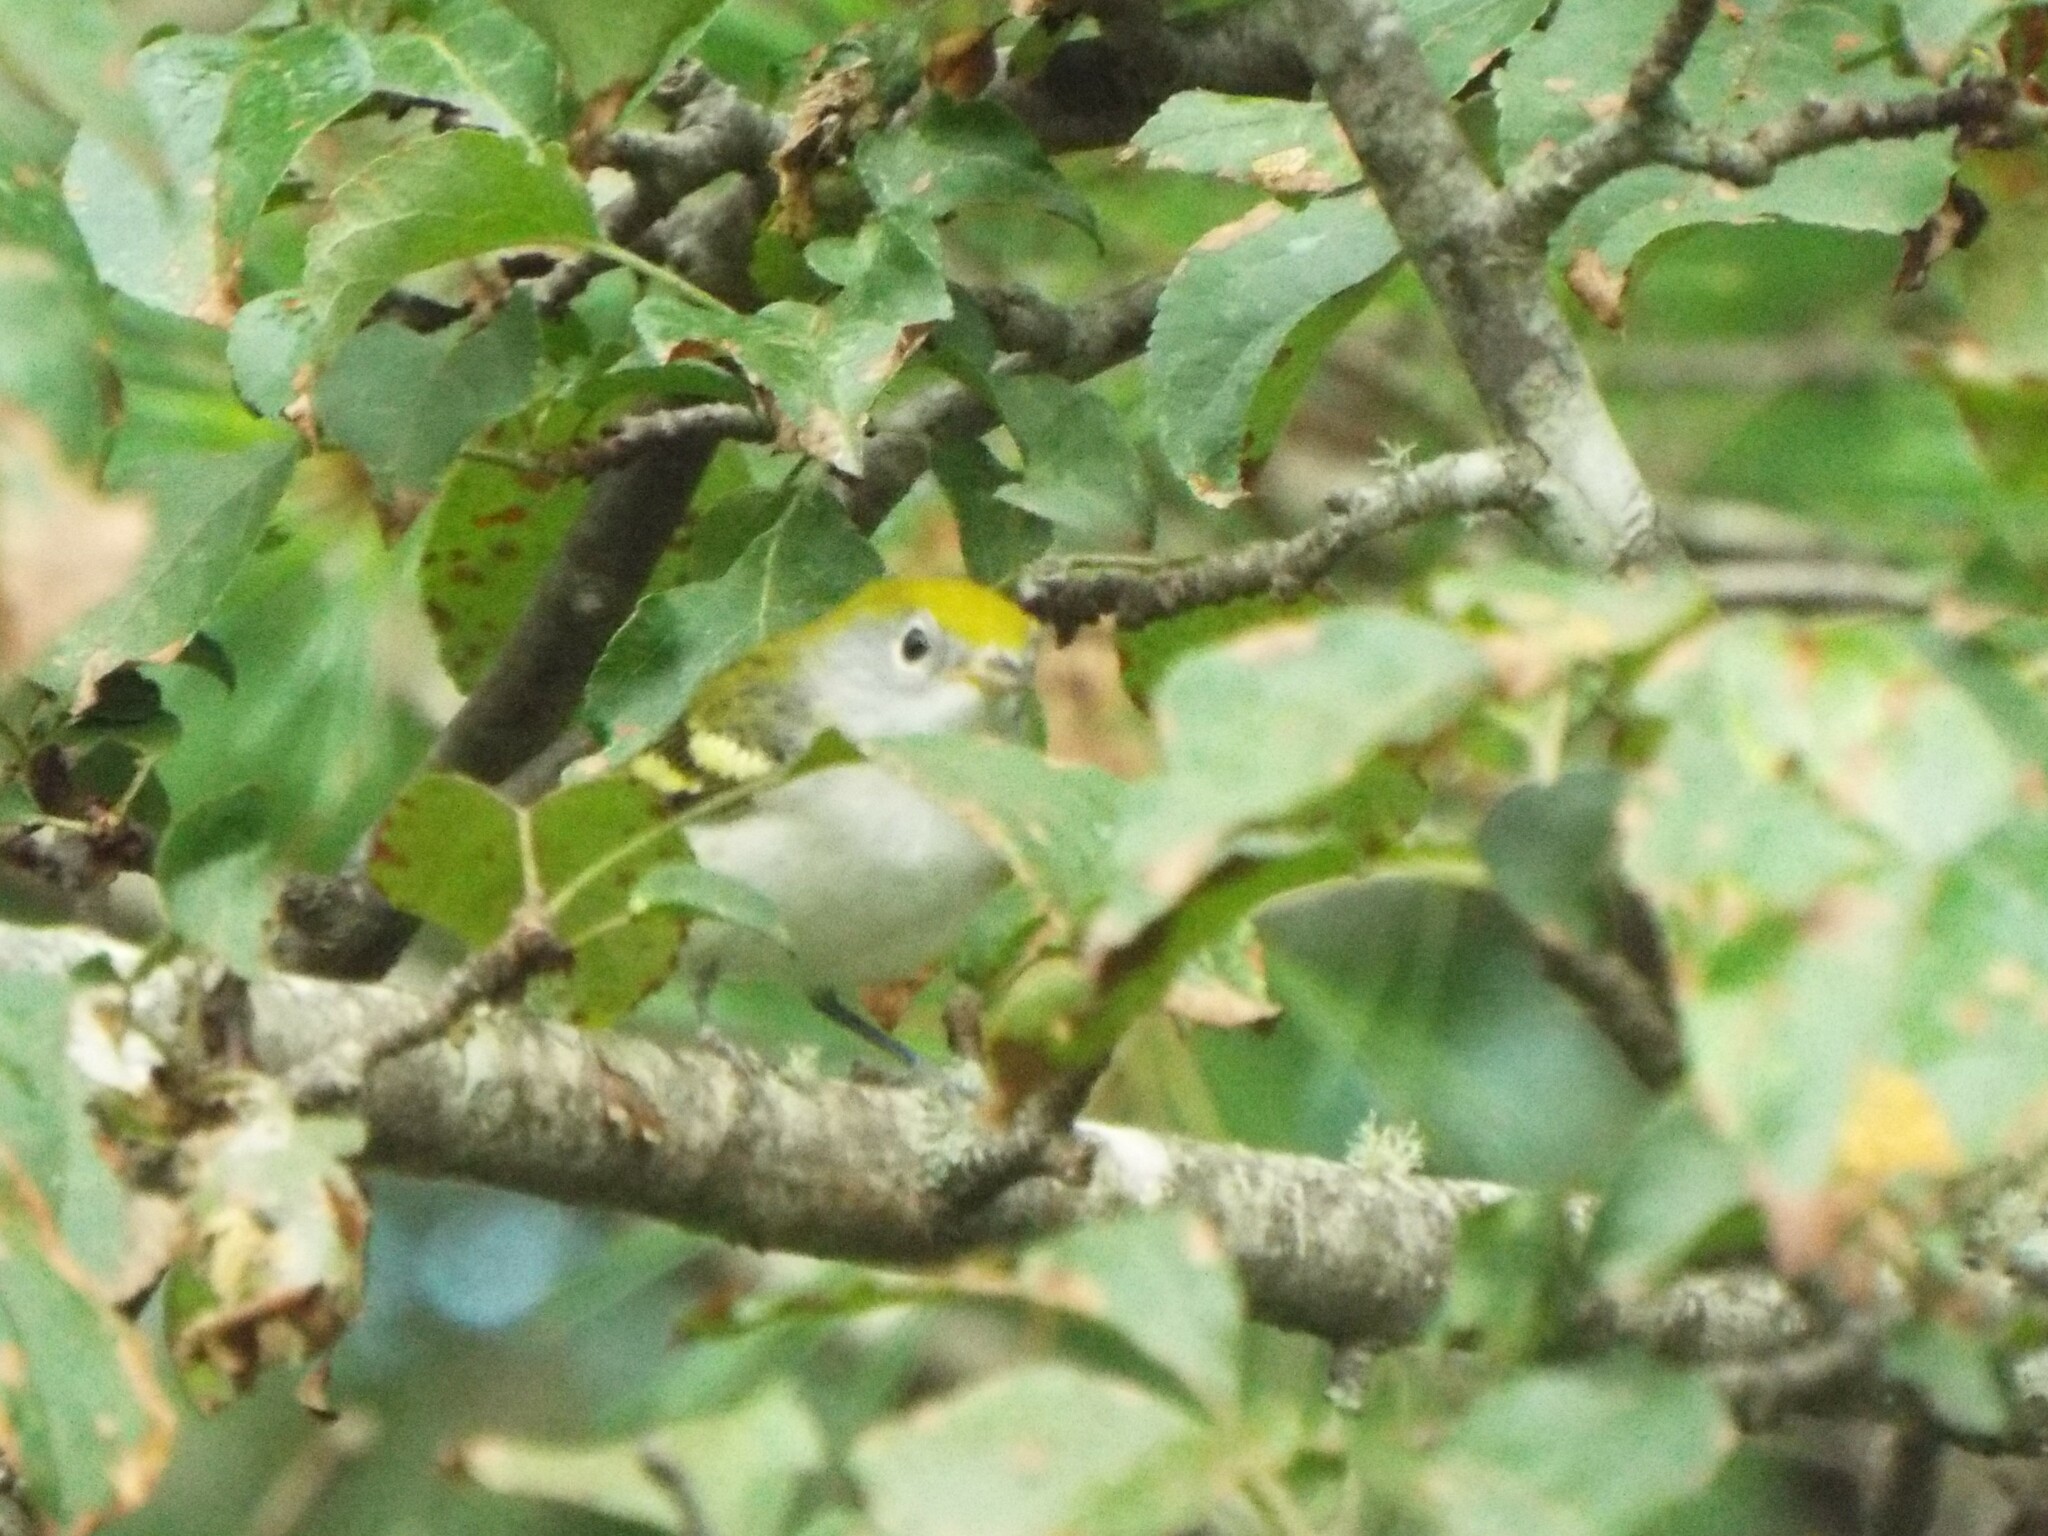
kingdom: Animalia
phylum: Chordata
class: Aves
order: Passeriformes
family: Parulidae
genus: Setophaga
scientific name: Setophaga pensylvanica
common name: Chestnut-sided warbler
